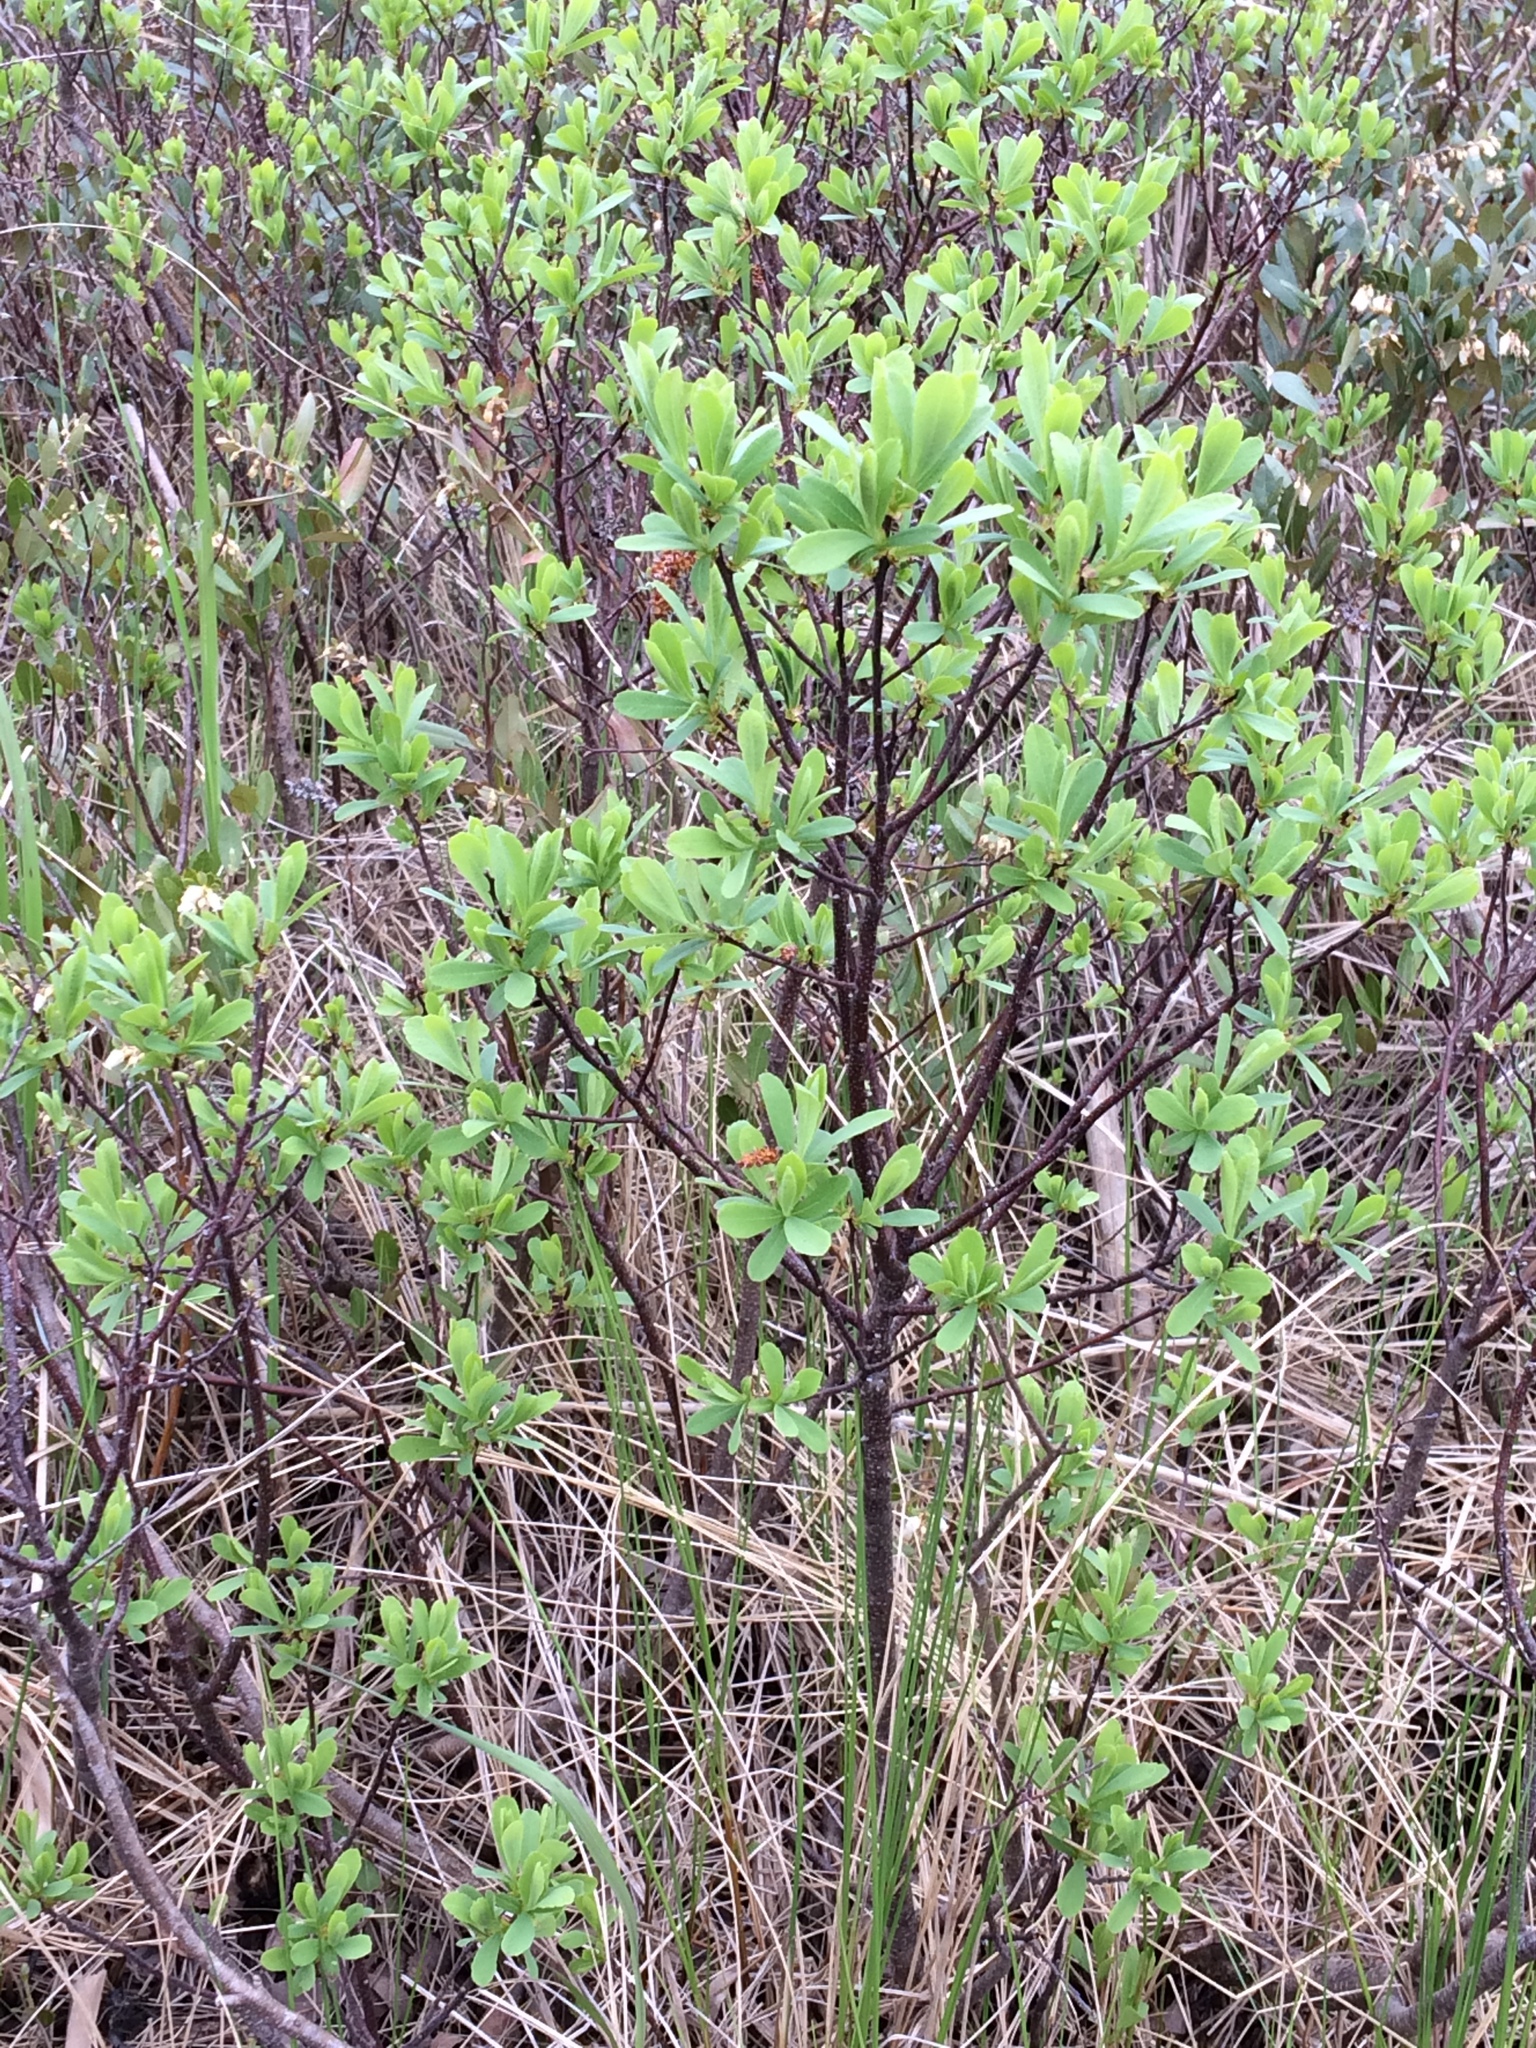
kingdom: Plantae
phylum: Tracheophyta
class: Magnoliopsida
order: Fagales
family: Myricaceae
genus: Myrica
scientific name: Myrica gale
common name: Sweet gale
